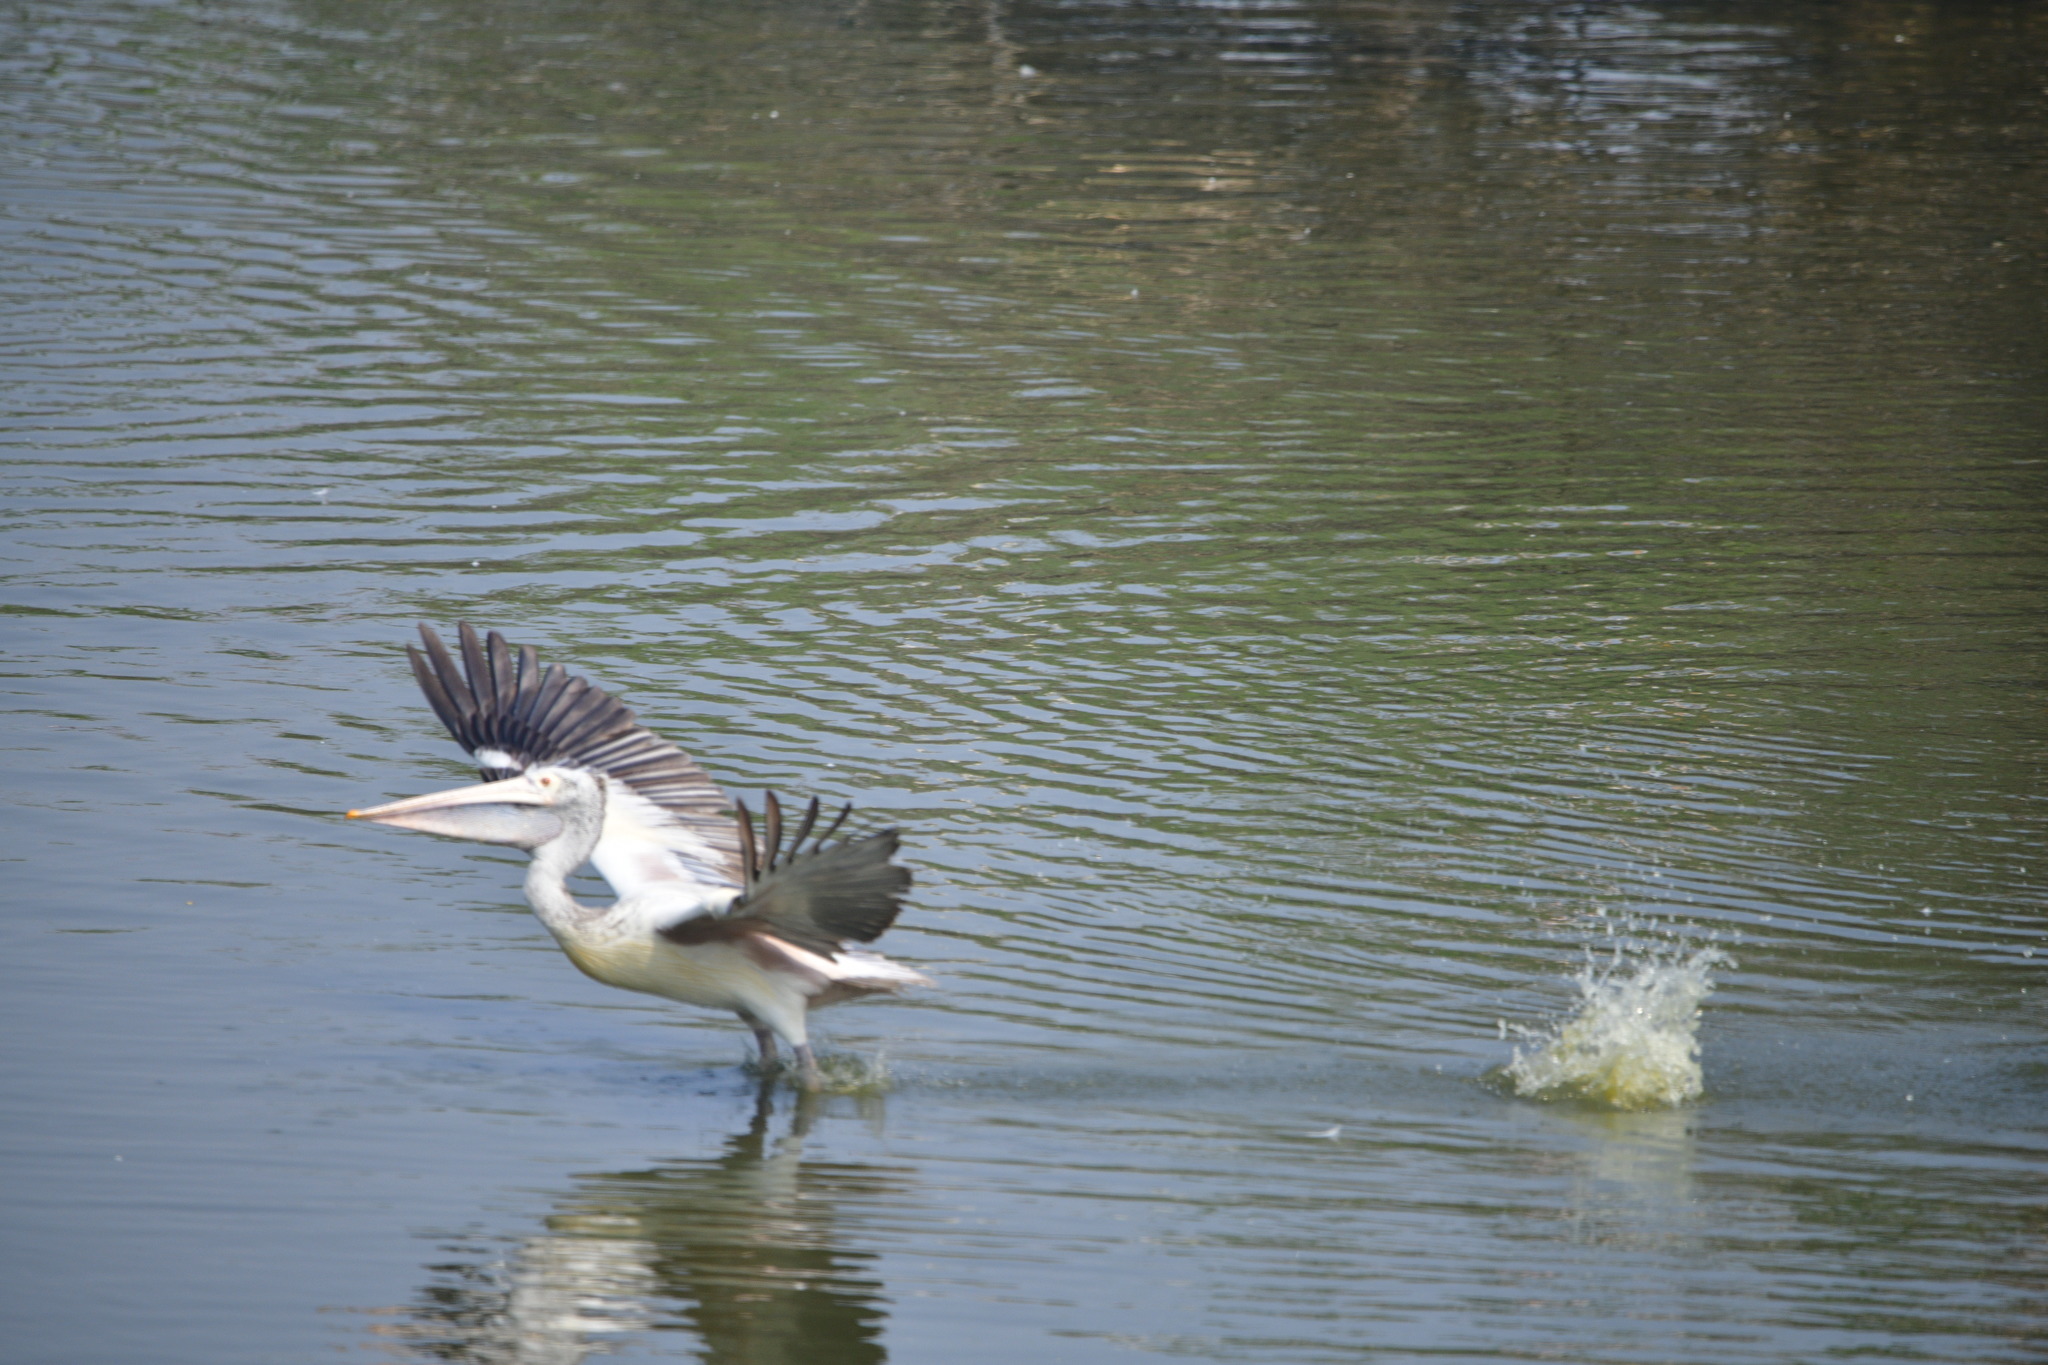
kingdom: Animalia
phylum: Chordata
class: Aves
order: Pelecaniformes
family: Pelecanidae
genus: Pelecanus
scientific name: Pelecanus philippensis
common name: Spot-billed pelican
